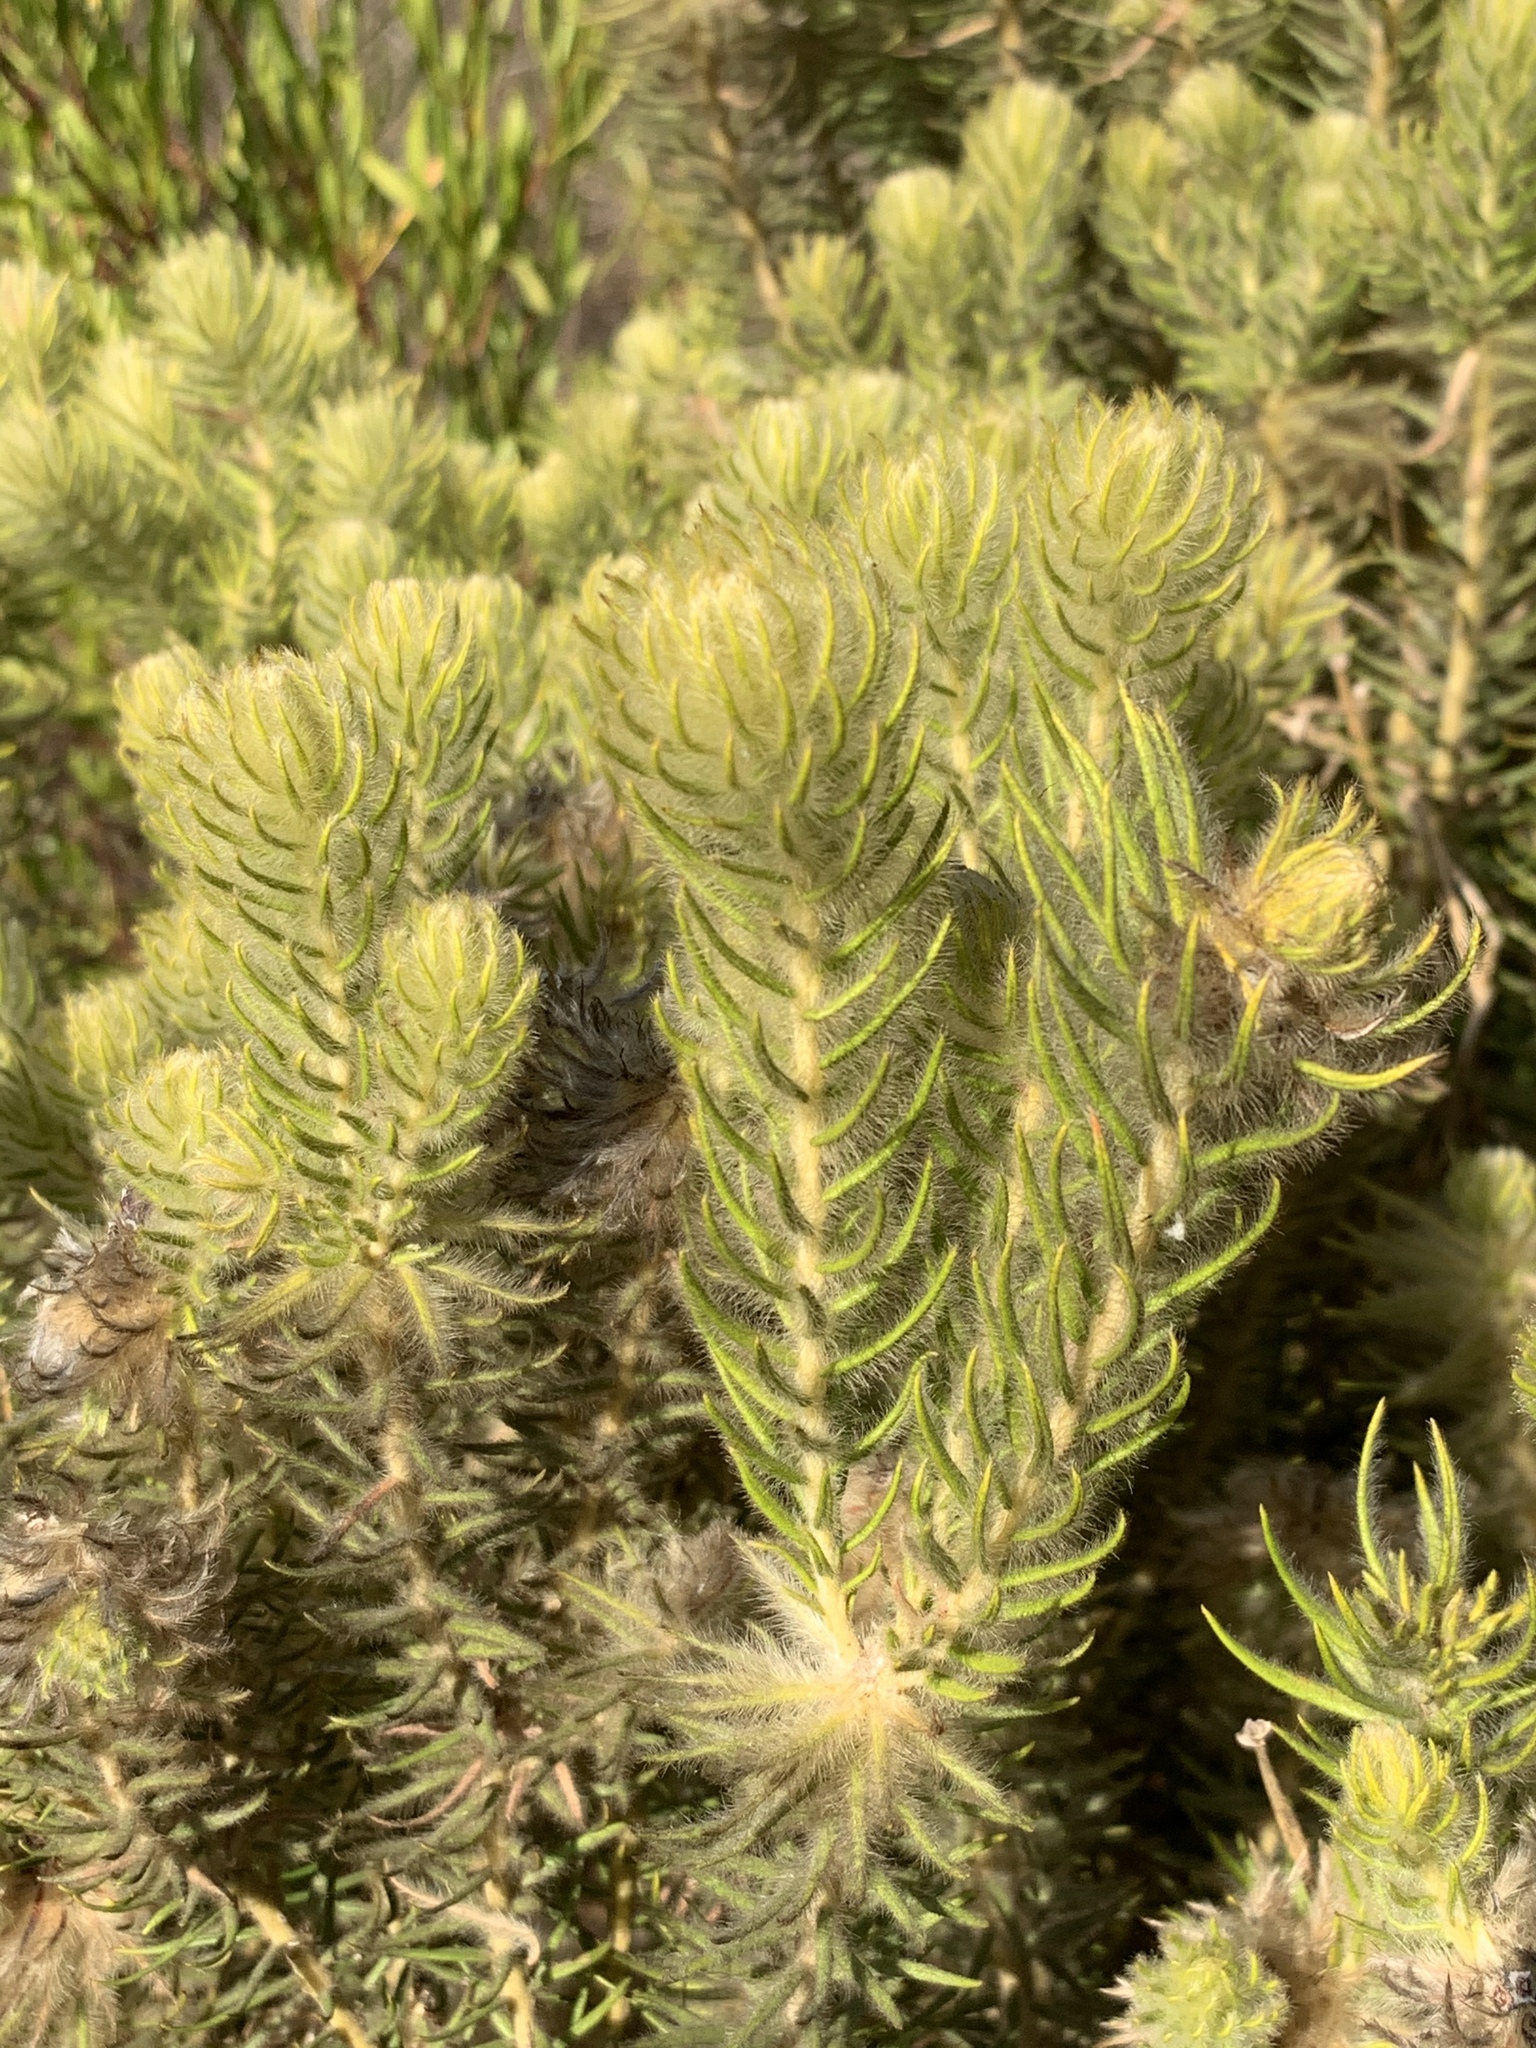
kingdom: Plantae
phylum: Tracheophyta
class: Magnoliopsida
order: Rosales
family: Rhamnaceae
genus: Phylica
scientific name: Phylica pubescens
